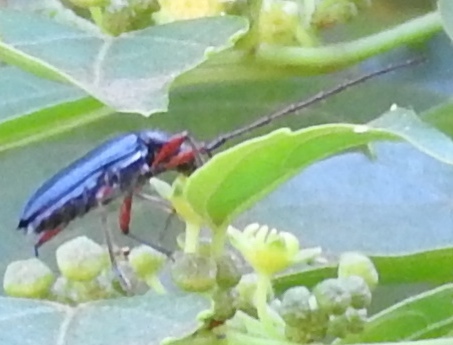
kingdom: Animalia
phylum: Arthropoda
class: Insecta
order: Coleoptera
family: Cerambycidae
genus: Stenosphenus
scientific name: Stenosphenus
